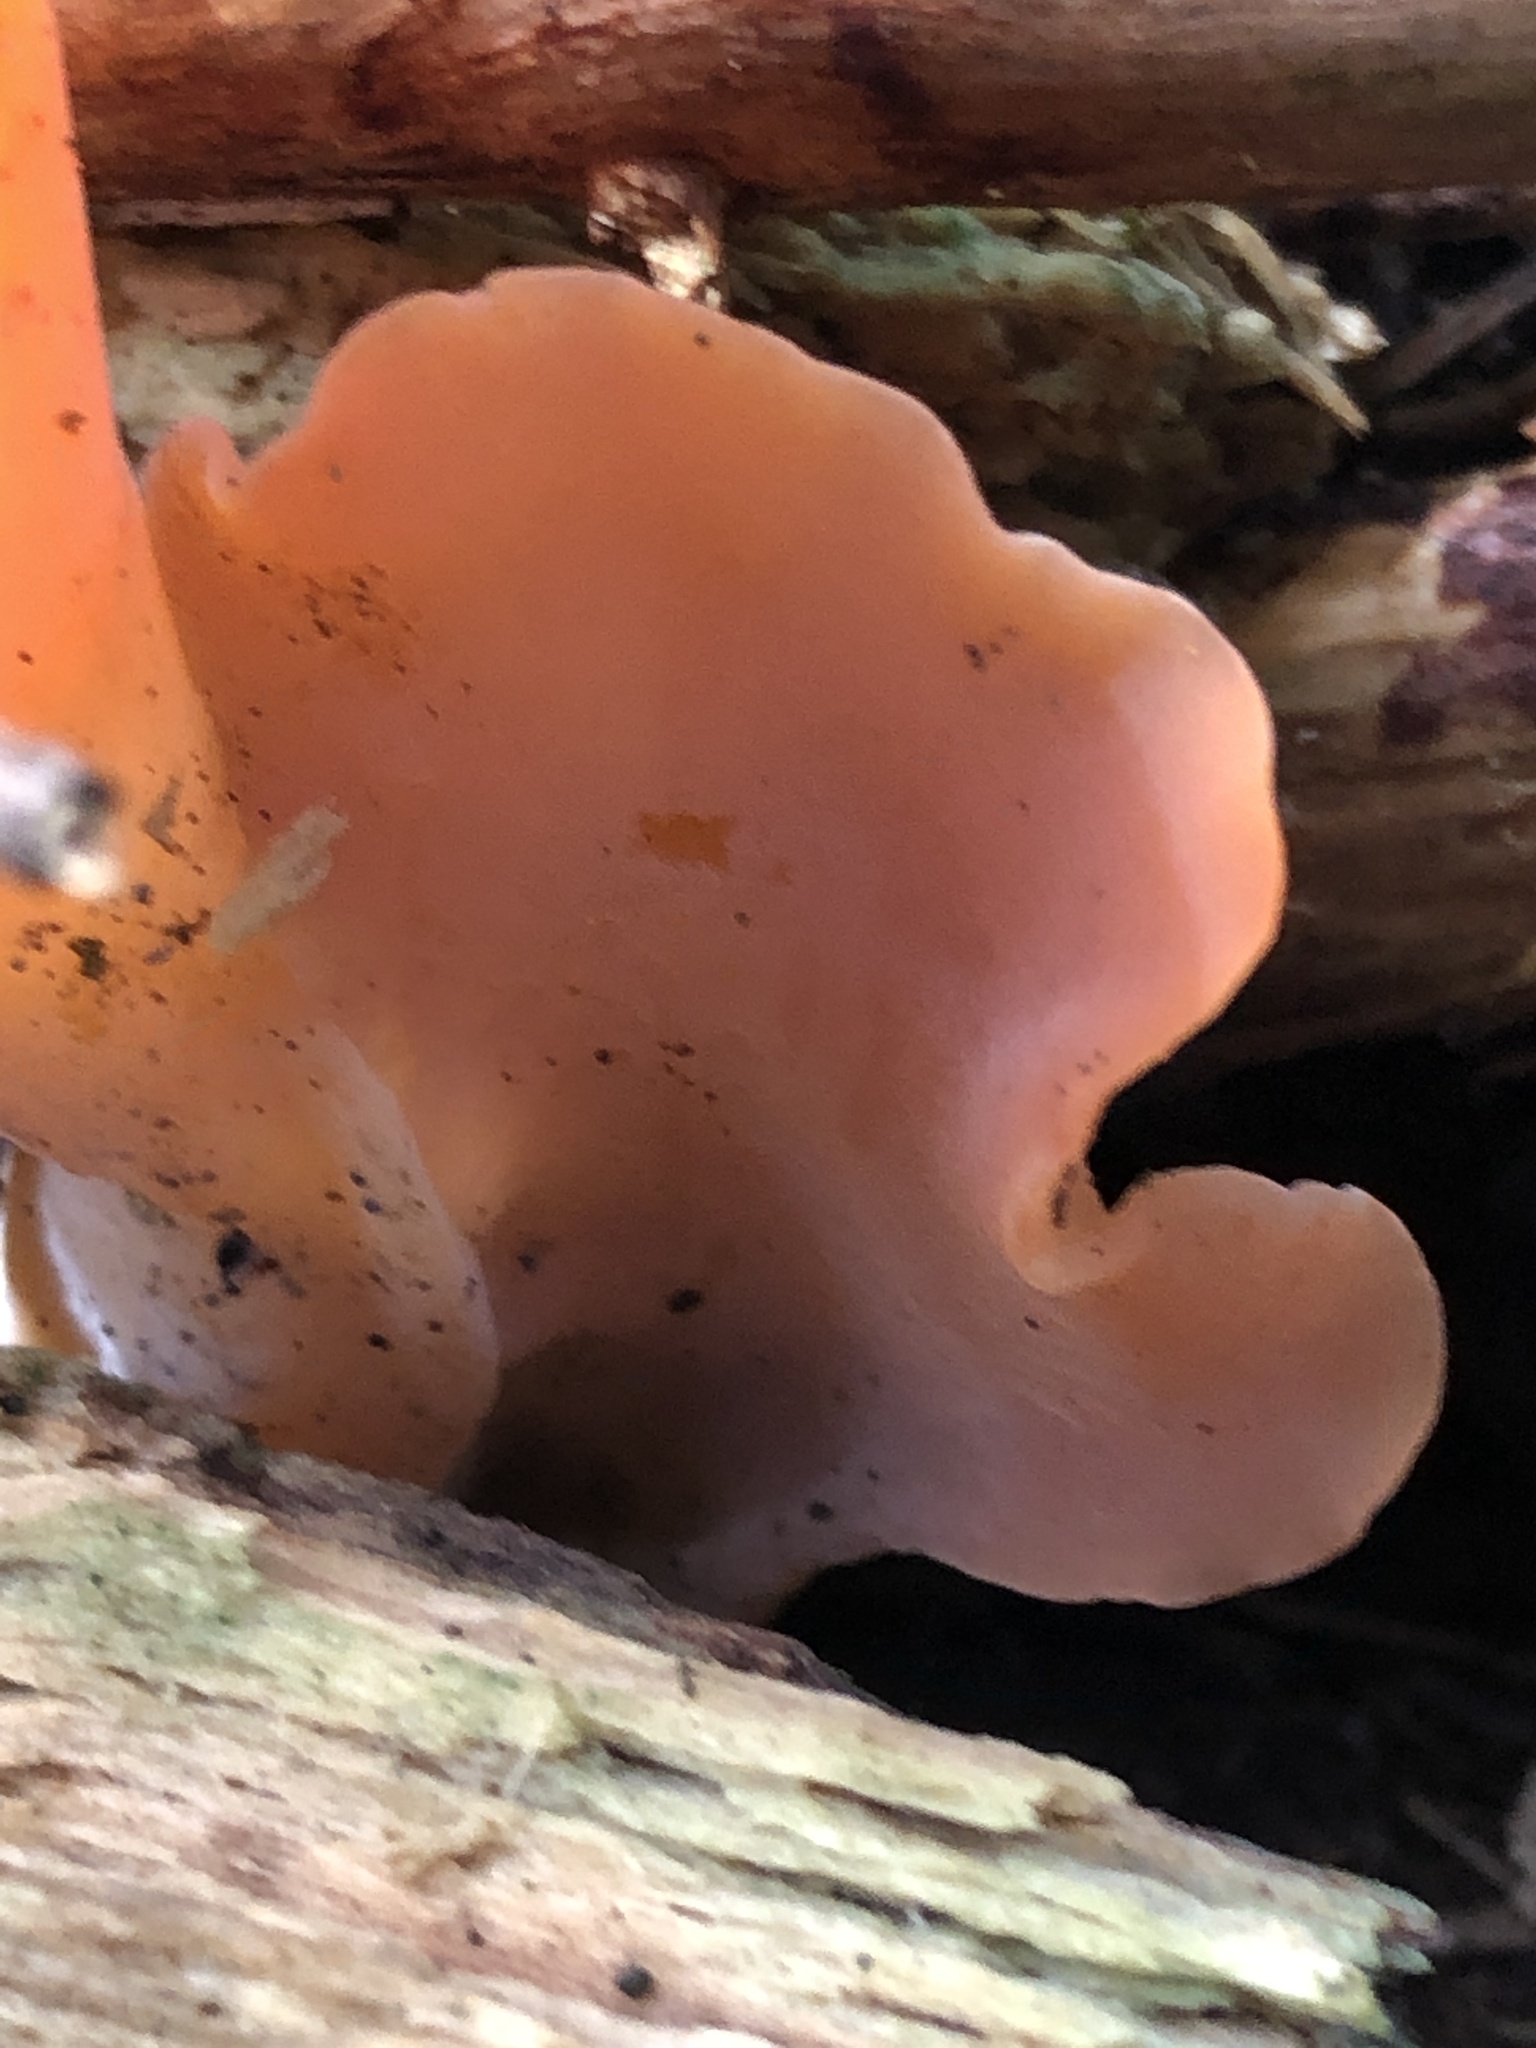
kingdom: Fungi
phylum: Basidiomycota
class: Agaricomycetes
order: Auriculariales
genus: Guepinia
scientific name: Guepinia helvelloides
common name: Salmon salad
